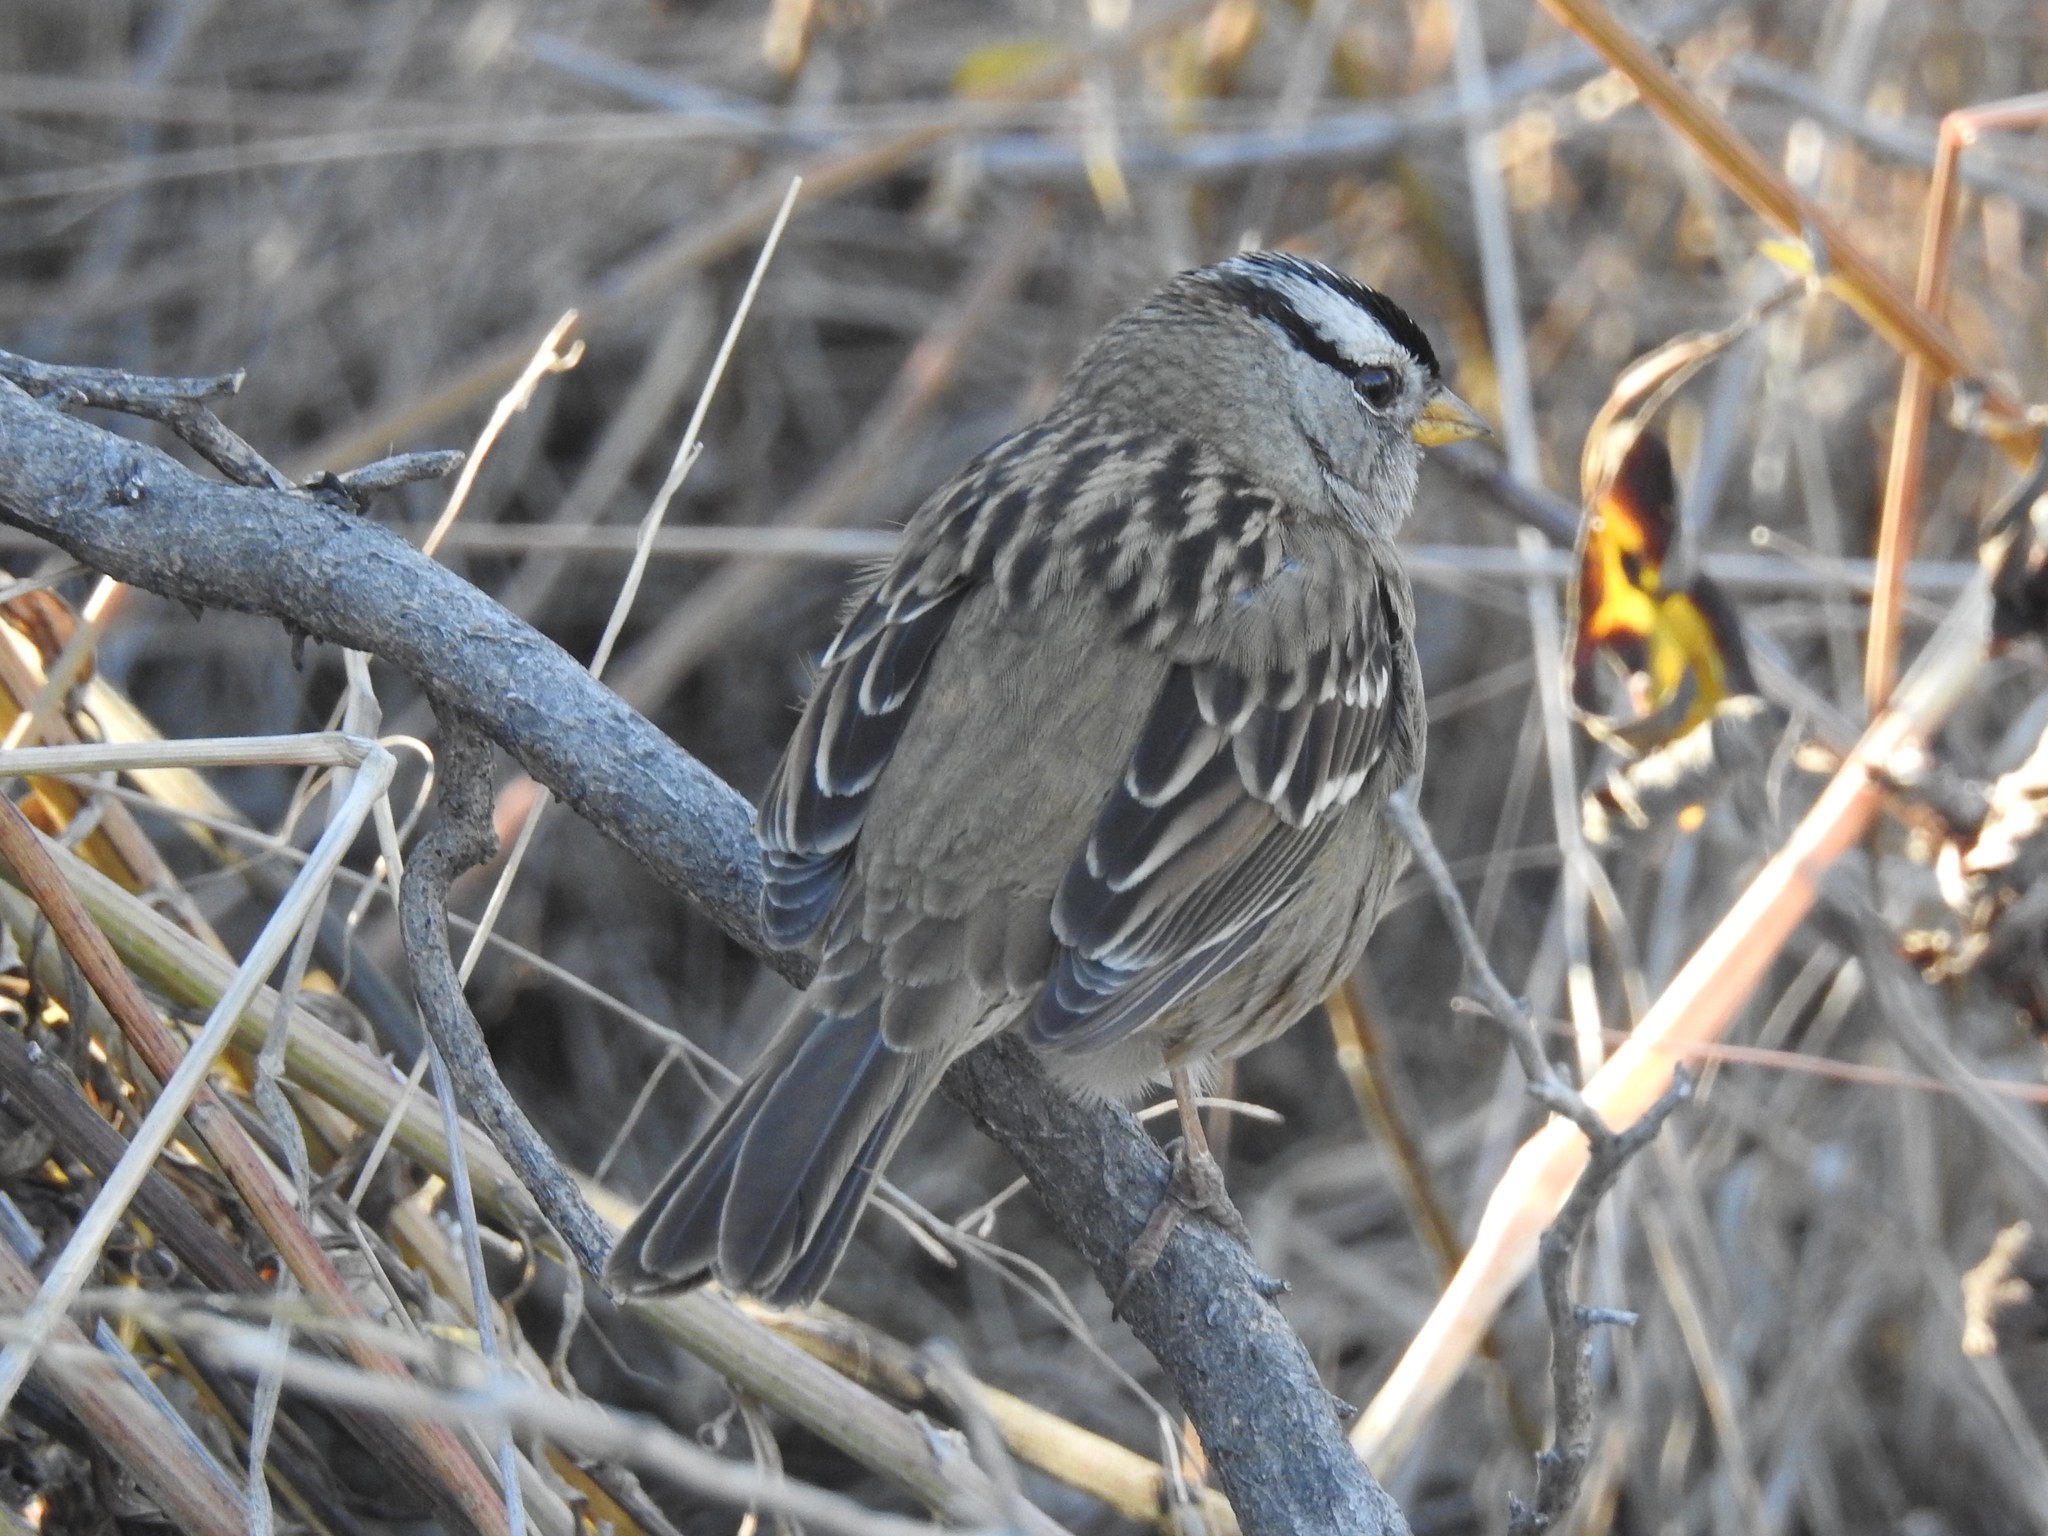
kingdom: Animalia
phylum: Chordata
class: Aves
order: Passeriformes
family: Passerellidae
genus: Zonotrichia
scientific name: Zonotrichia leucophrys
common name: White-crowned sparrow
